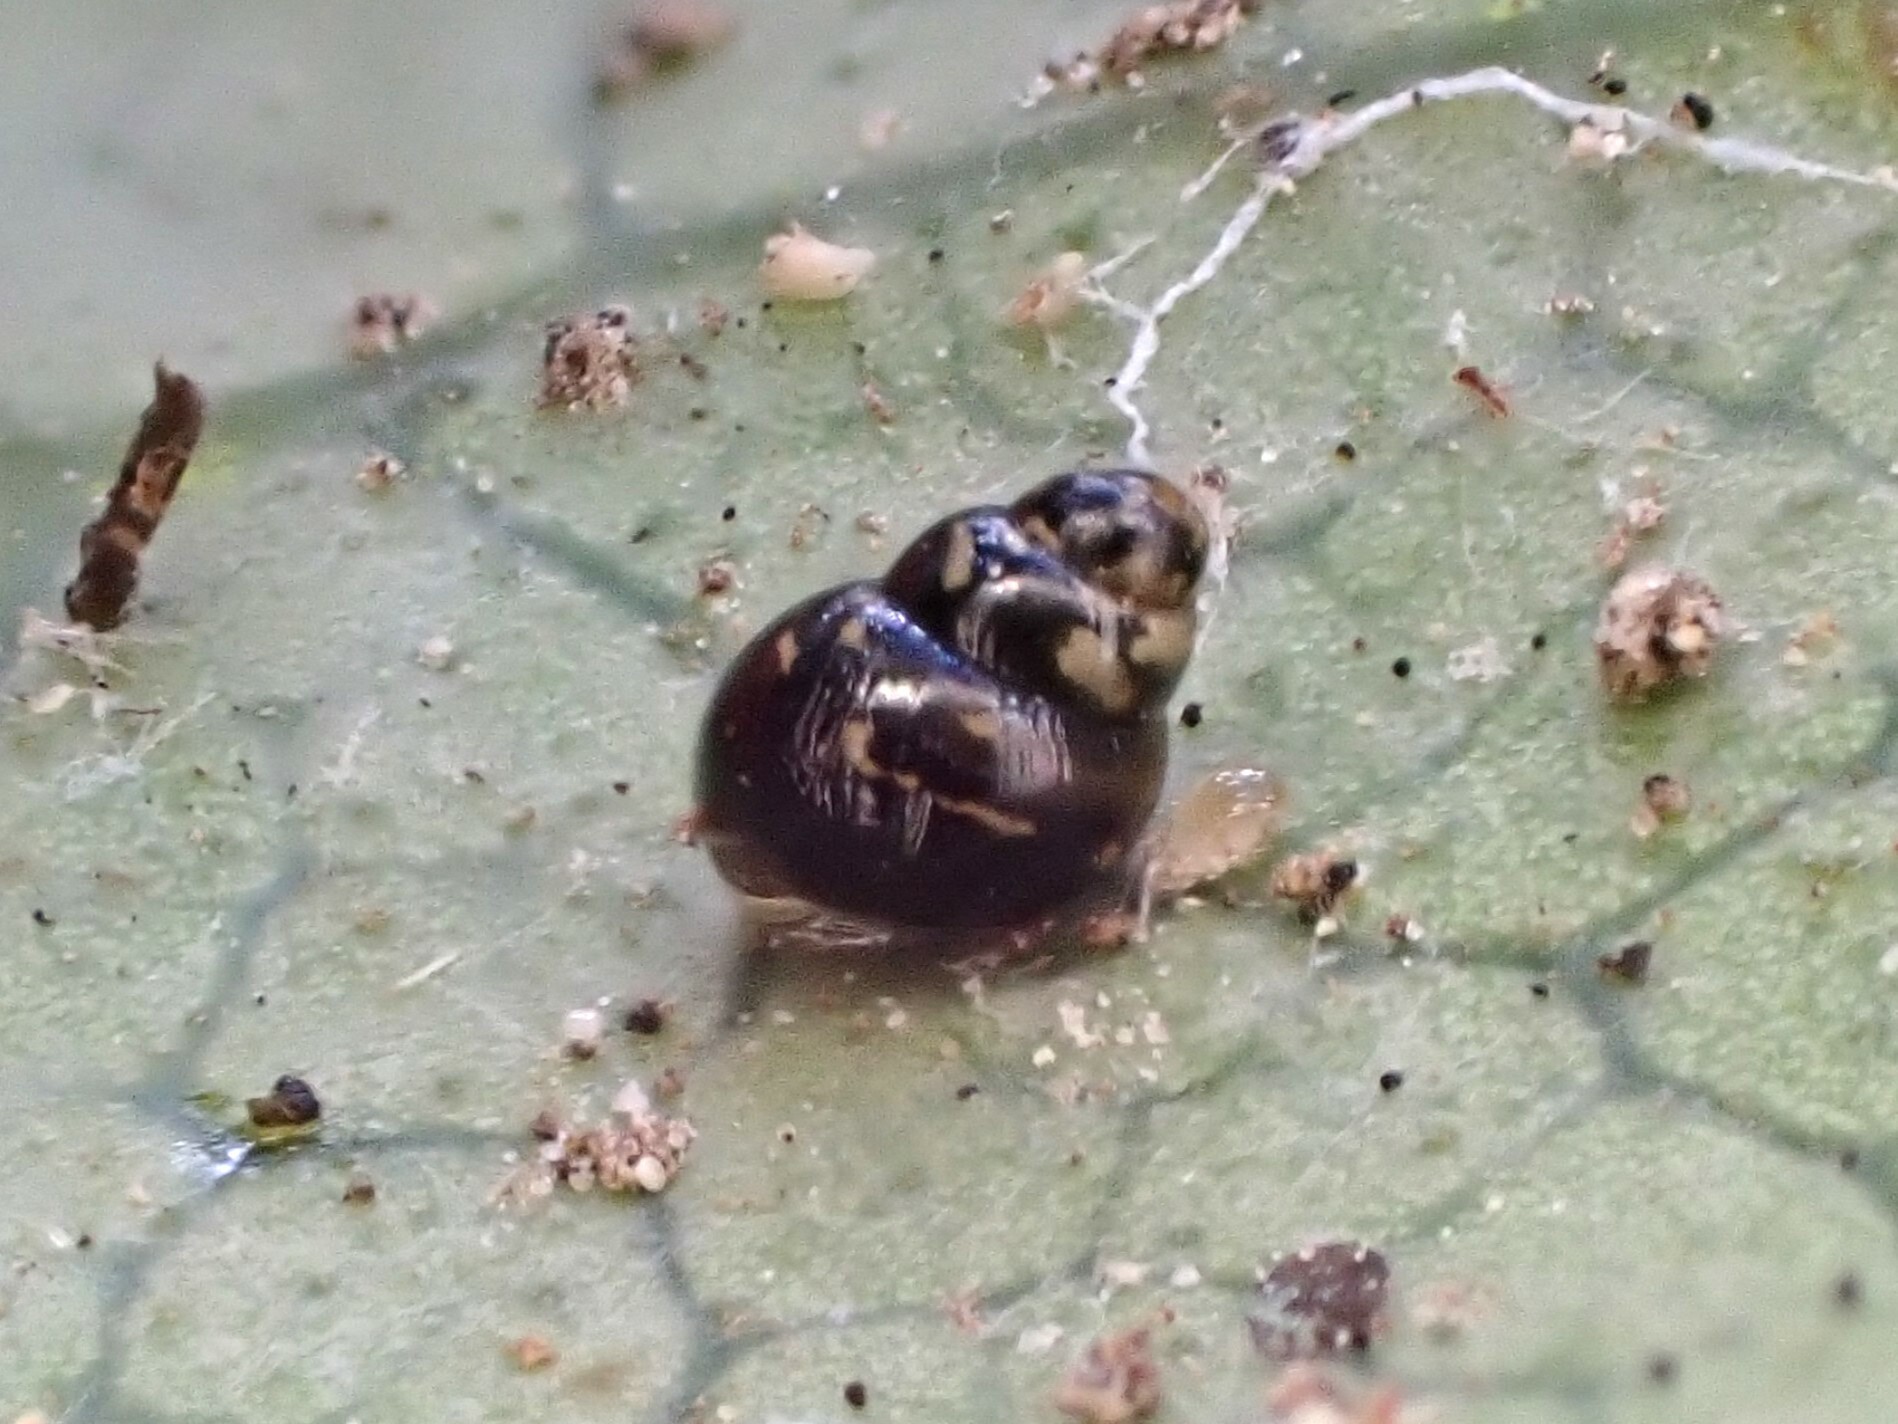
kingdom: Animalia
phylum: Mollusca
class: Gastropoda
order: Stylommatophora
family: Achatinellidae
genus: Tornatellinops
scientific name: Tornatellinops novoseelandicus
